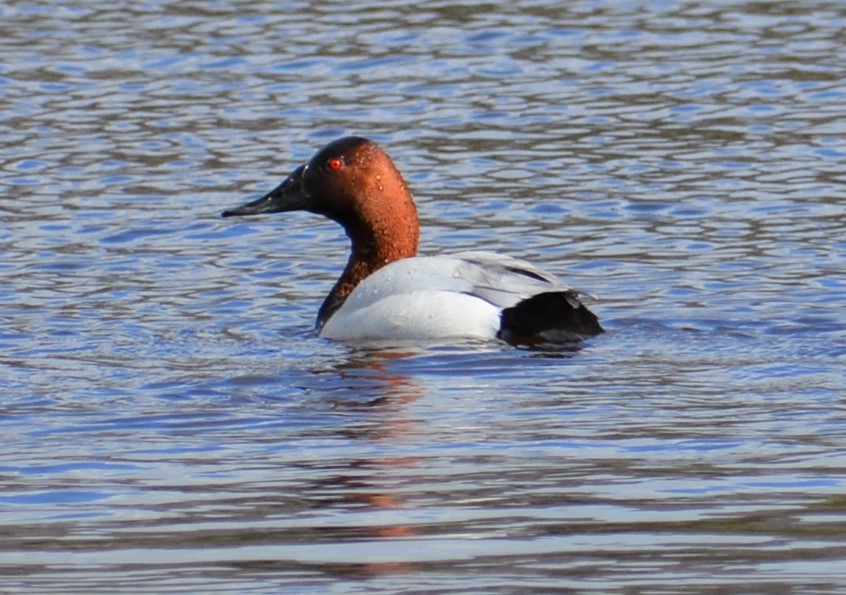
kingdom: Animalia
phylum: Chordata
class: Aves
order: Anseriformes
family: Anatidae
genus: Aythya
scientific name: Aythya valisineria
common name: Canvasback
